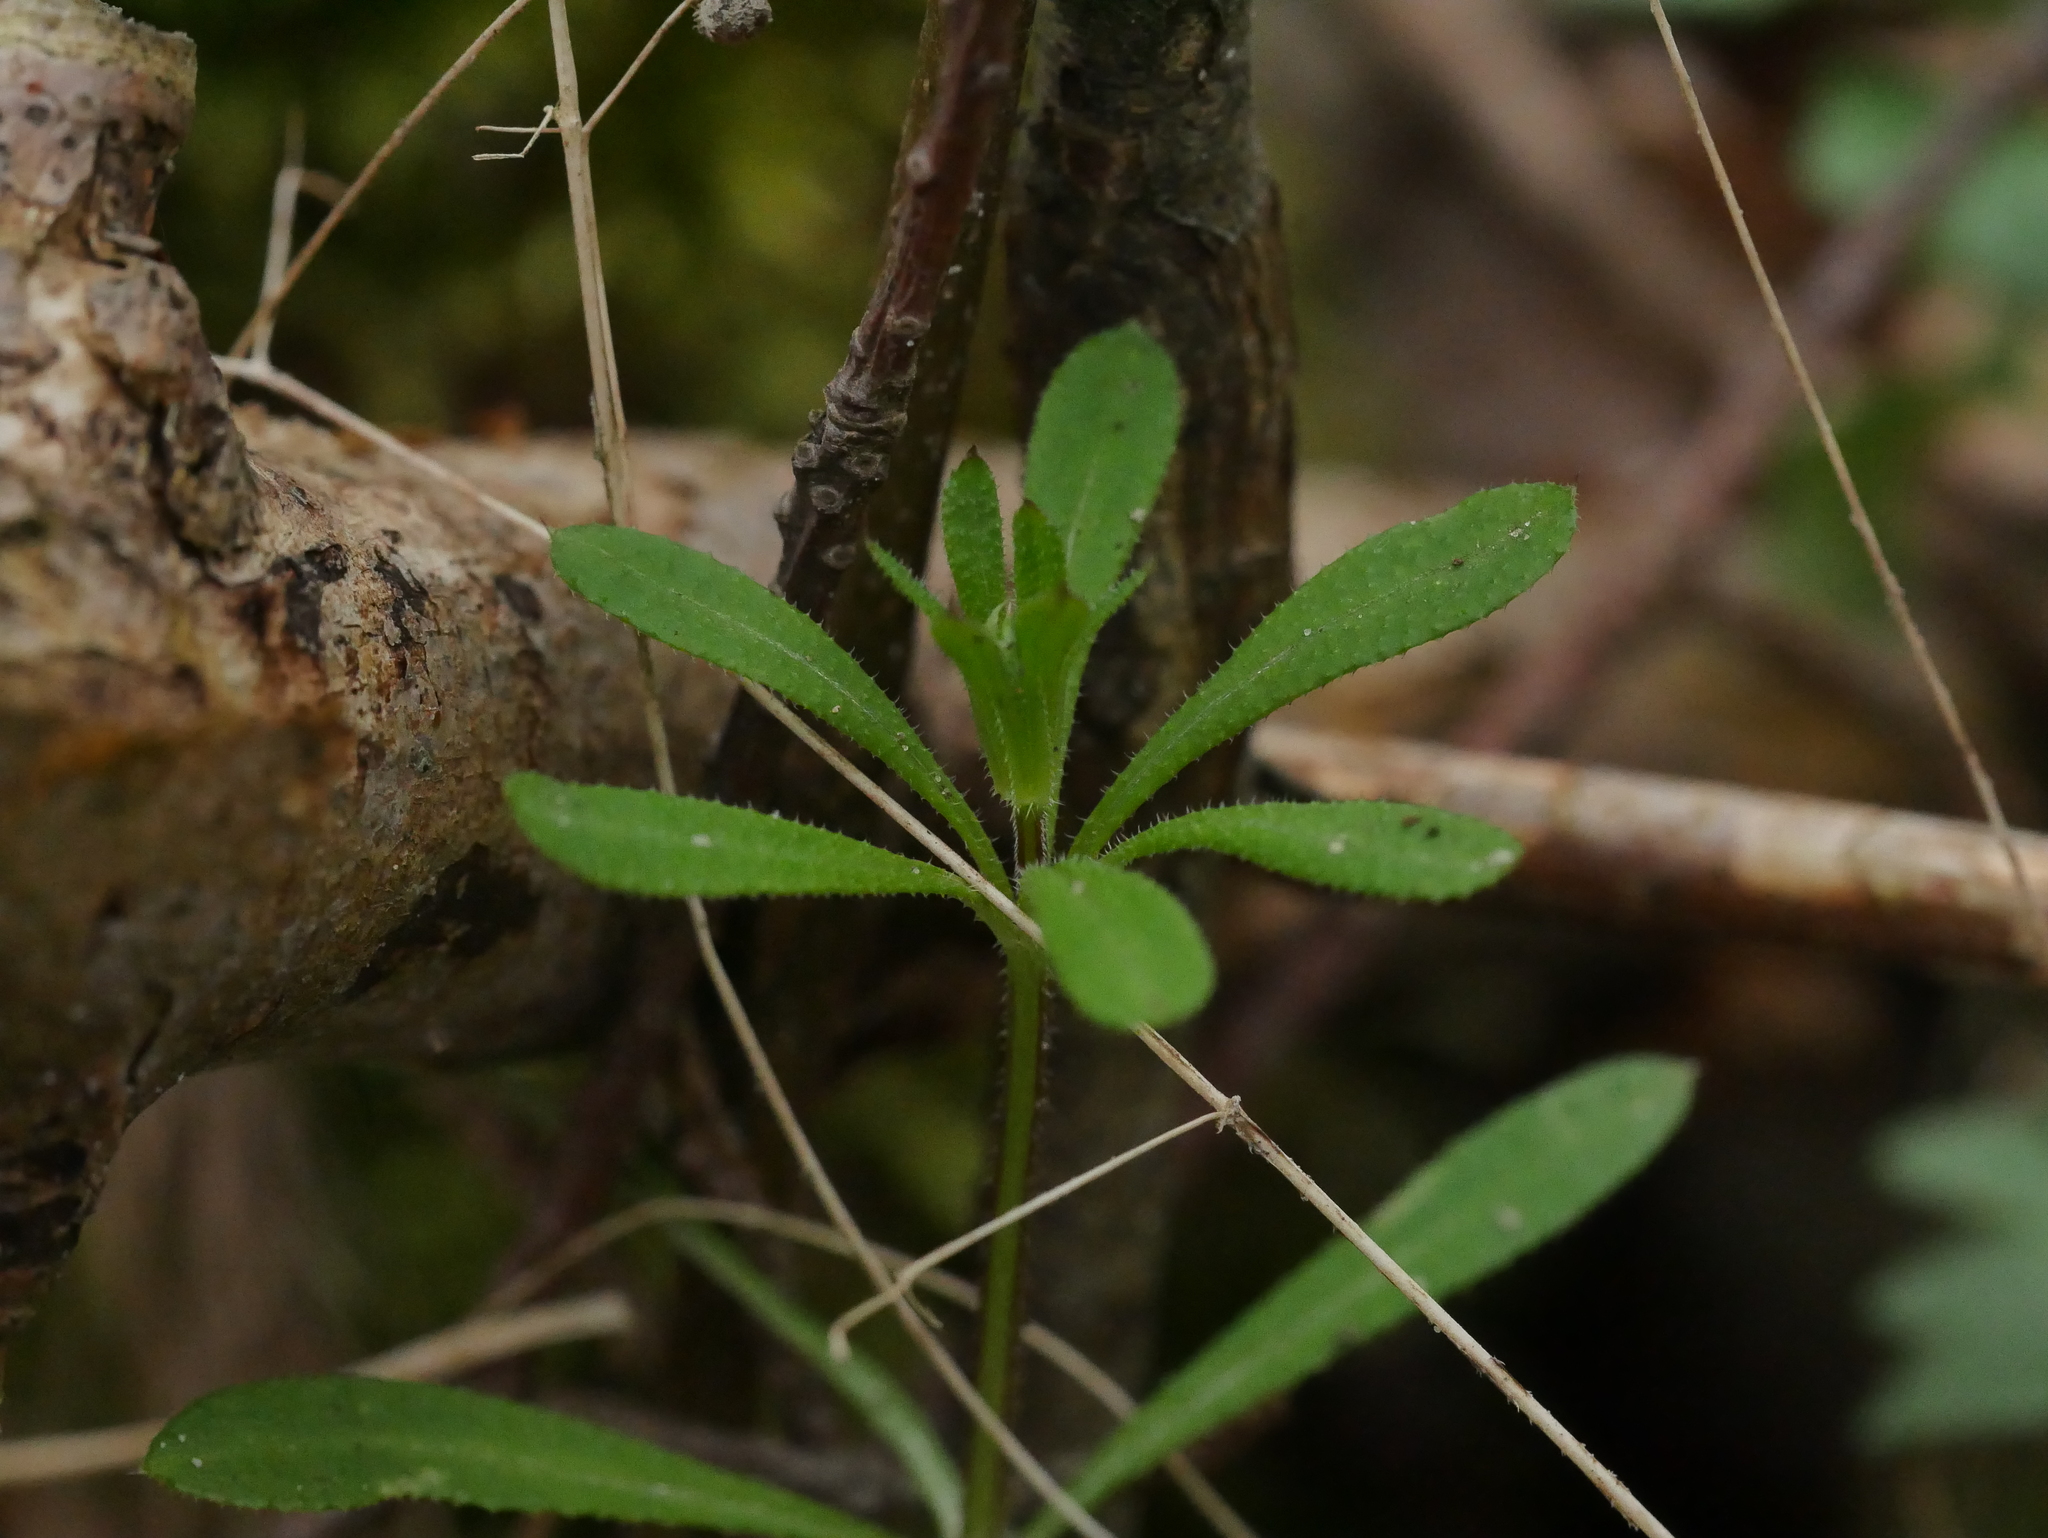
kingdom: Plantae
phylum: Tracheophyta
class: Magnoliopsida
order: Gentianales
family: Rubiaceae
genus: Galium
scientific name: Galium aparine
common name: Cleavers
